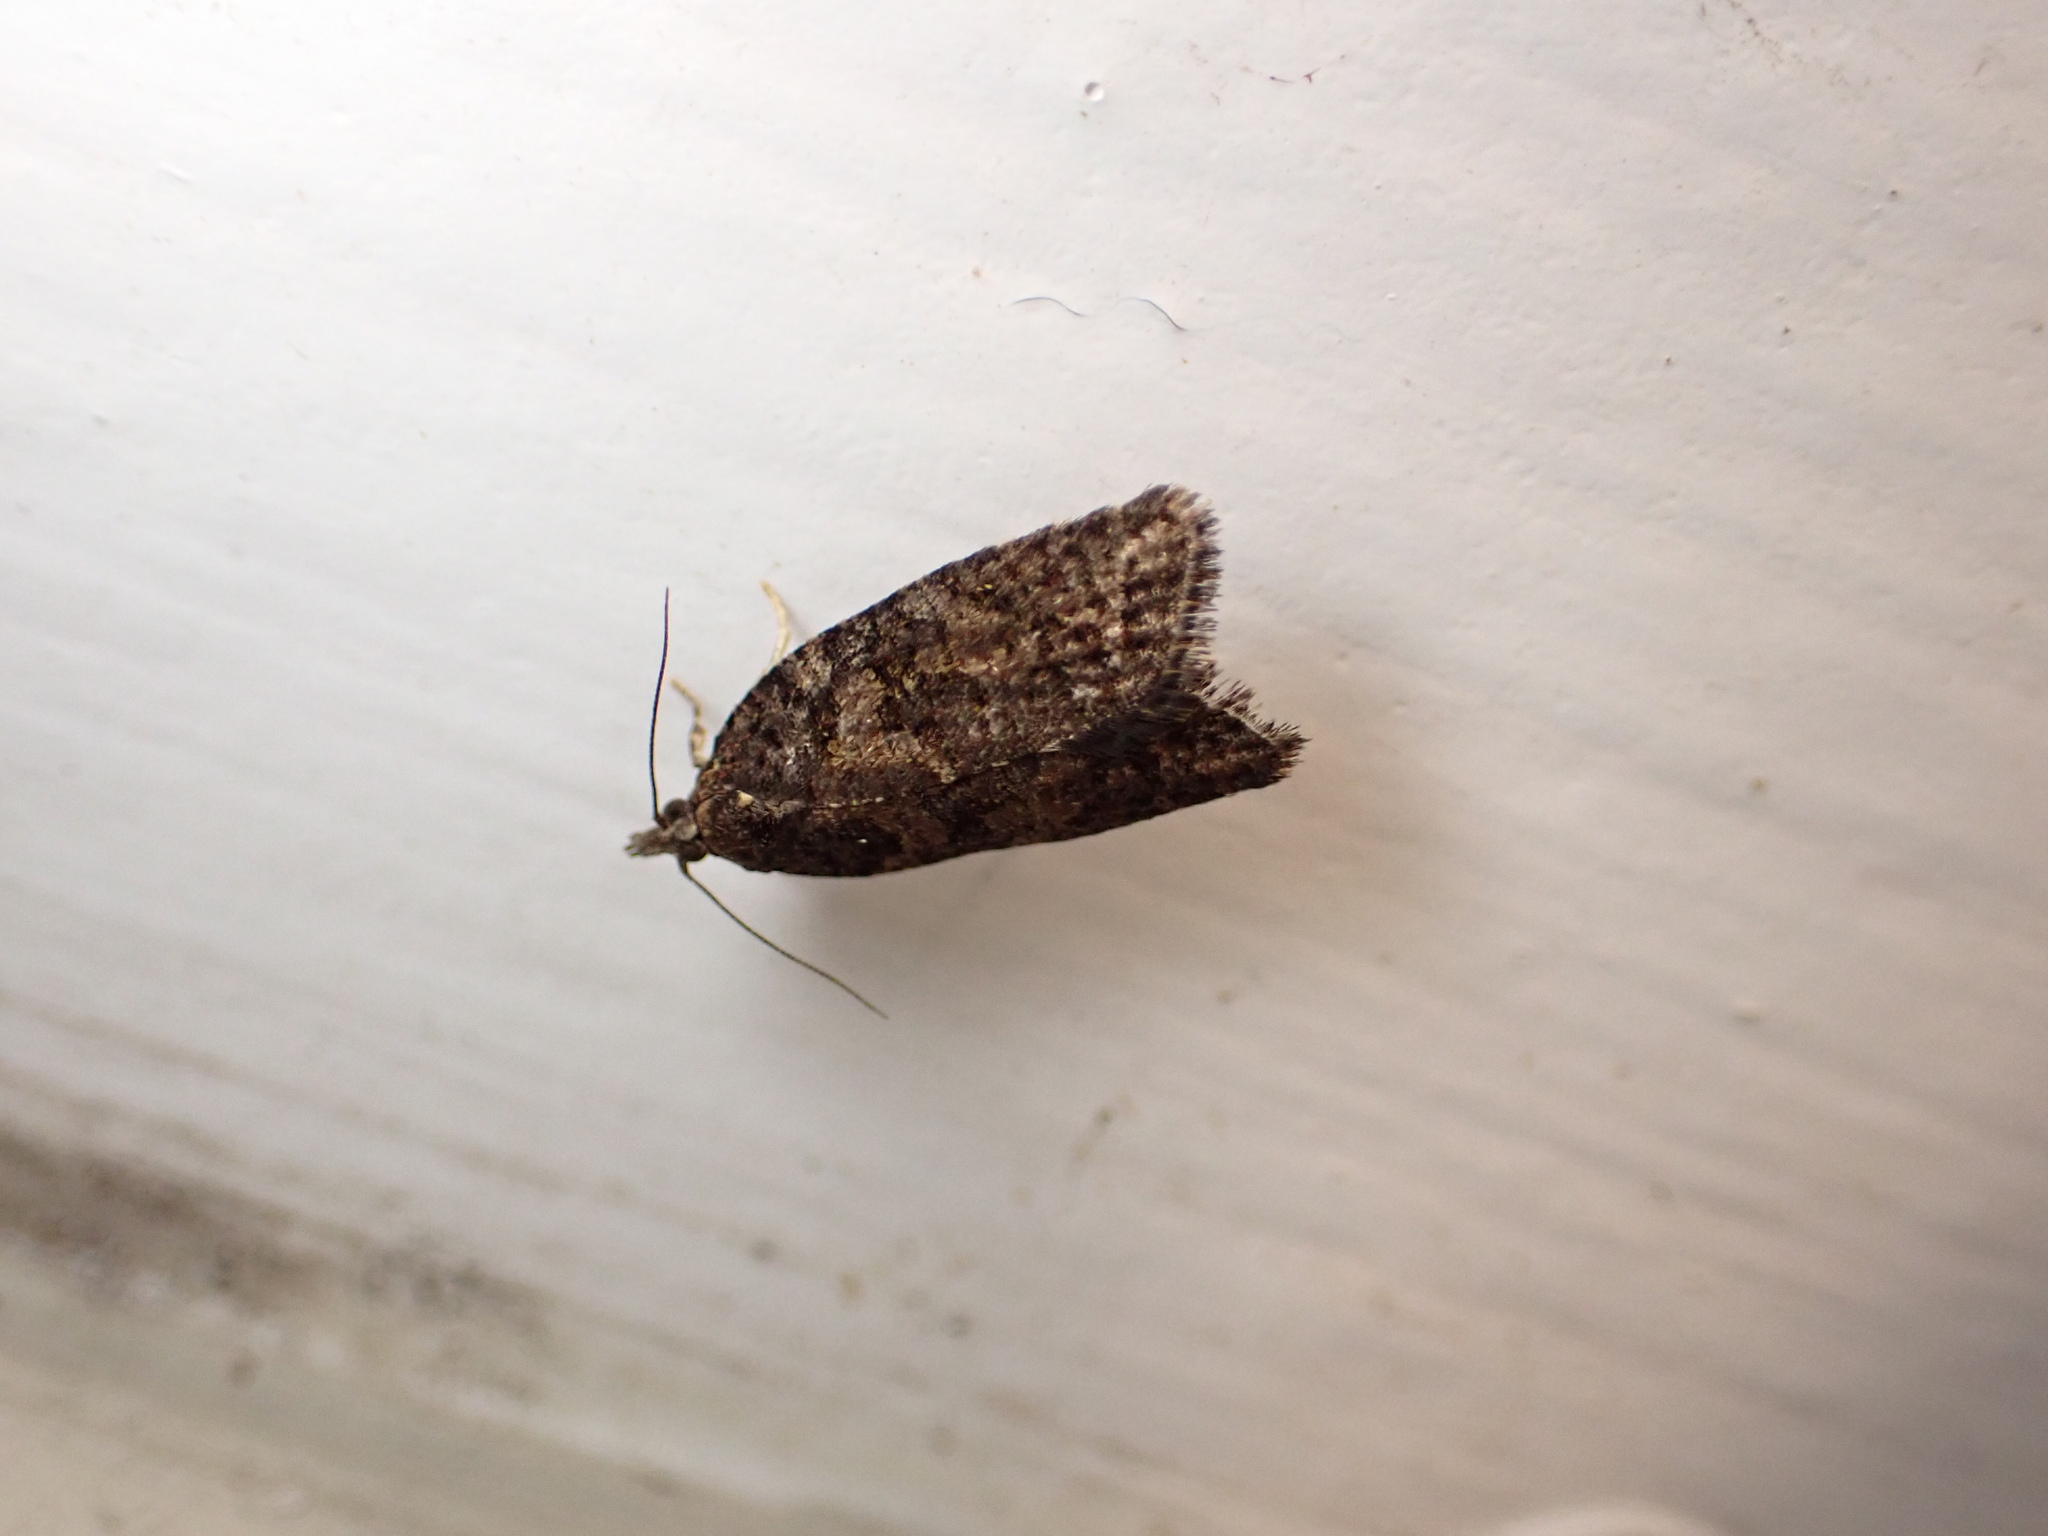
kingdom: Animalia
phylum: Arthropoda
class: Insecta
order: Lepidoptera
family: Tortricidae
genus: Capua
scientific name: Capua intractana
